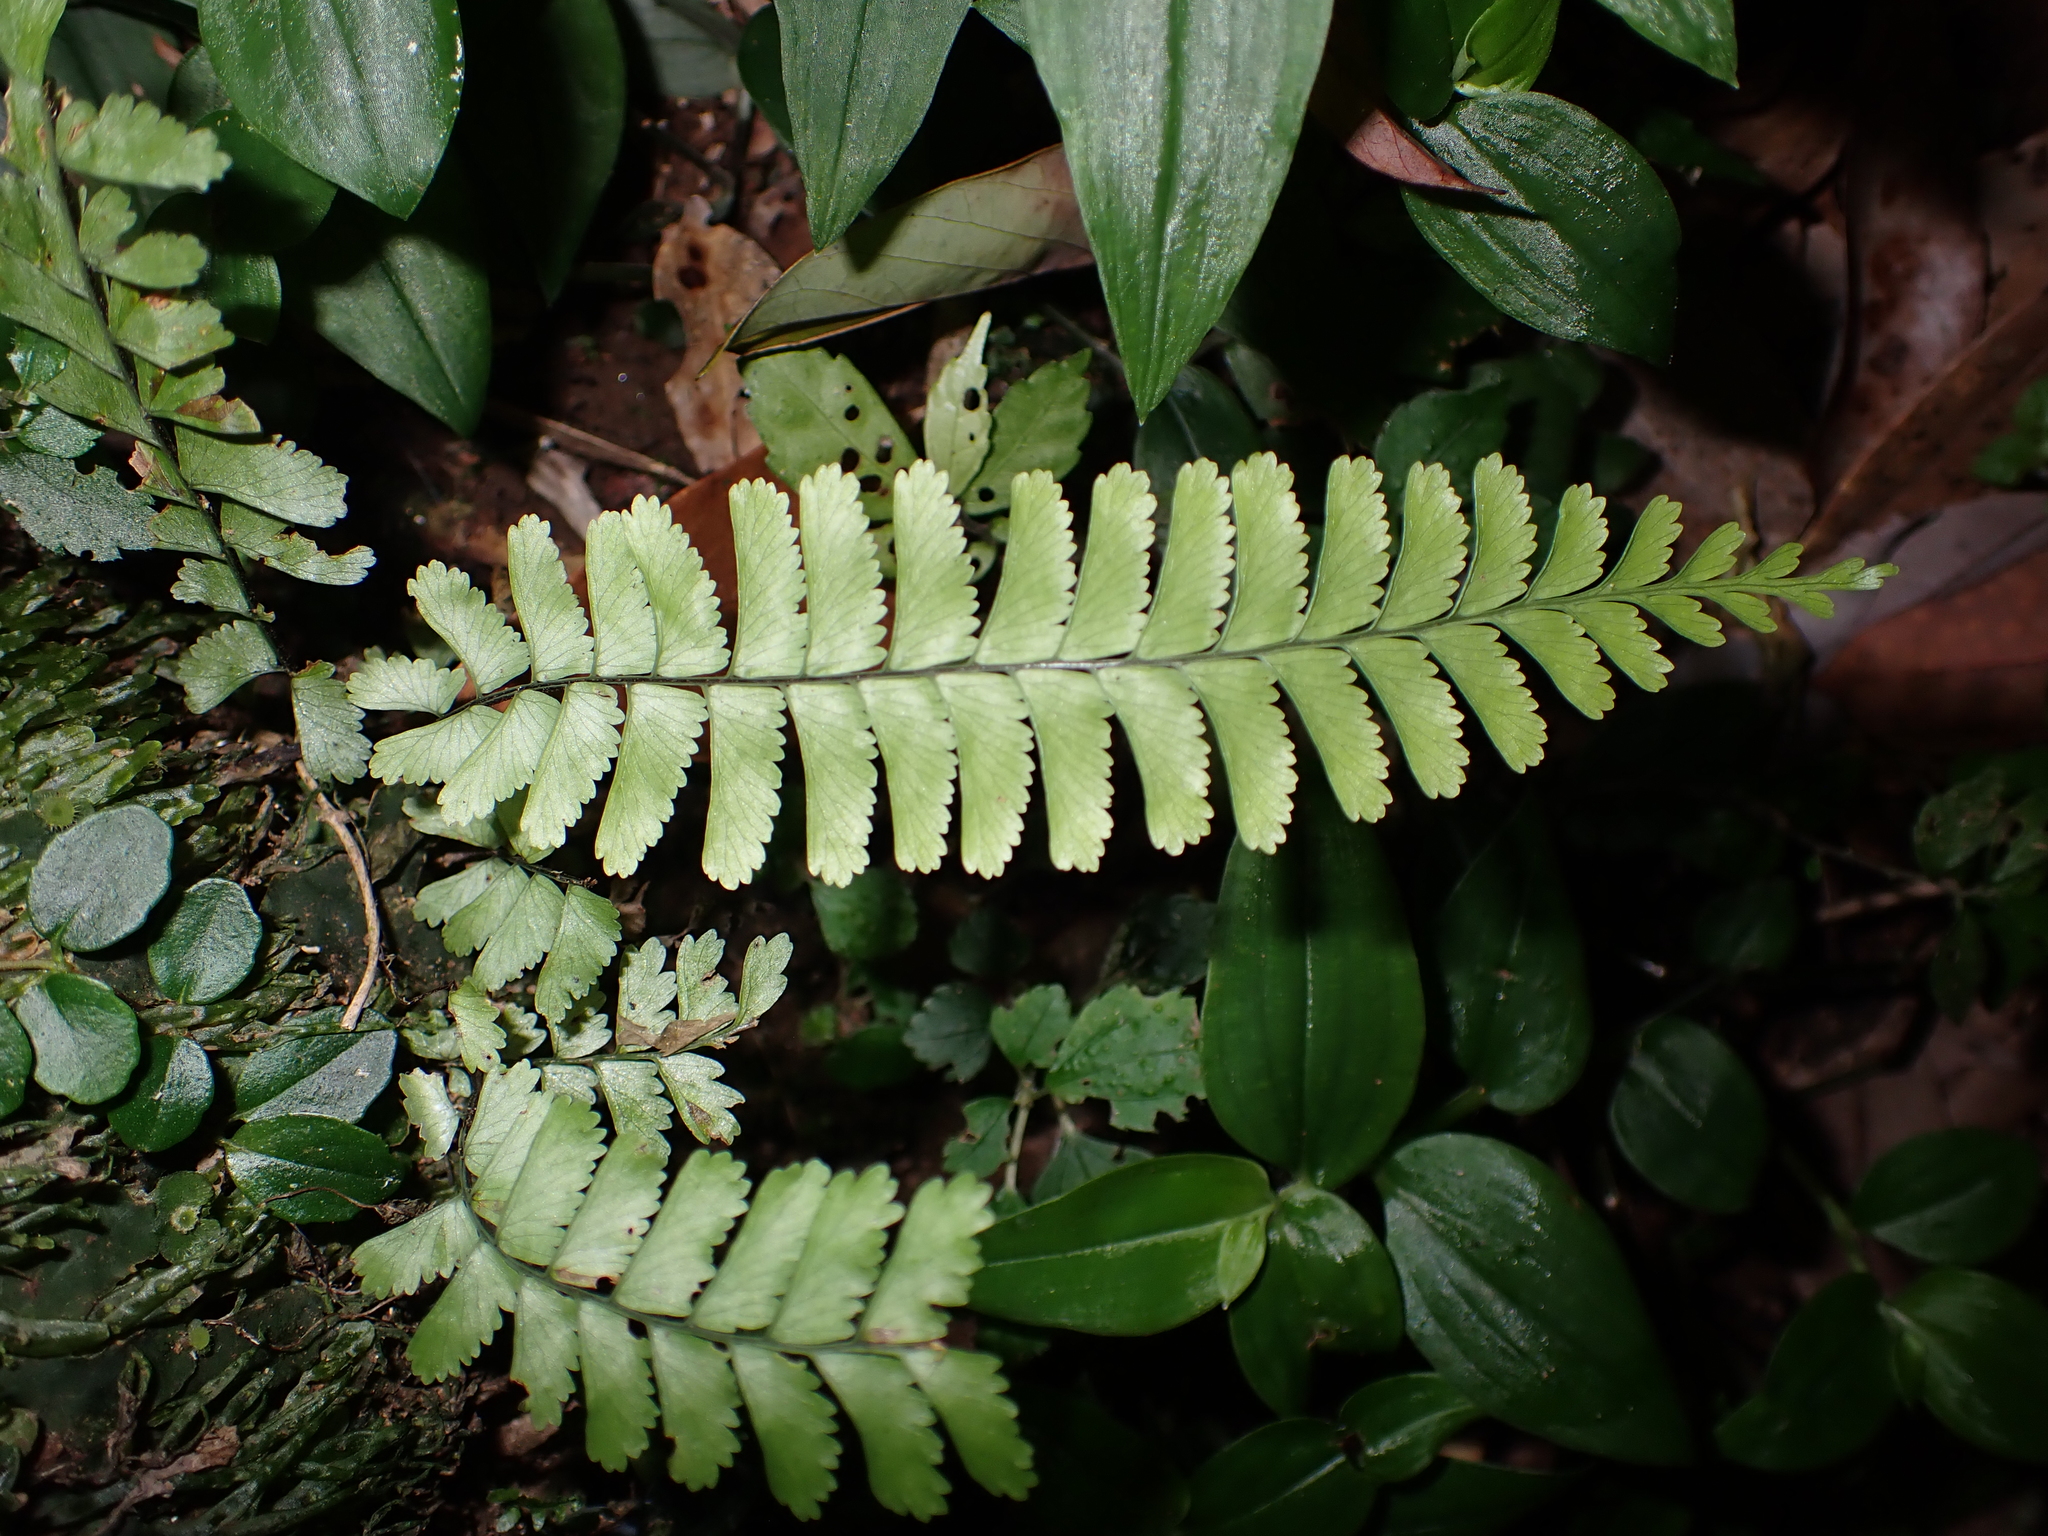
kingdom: Plantae
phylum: Tracheophyta
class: Polypodiopsida
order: Polypodiales
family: Aspleniaceae
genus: Hymenasplenium
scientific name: Hymenasplenium cheilosorum
